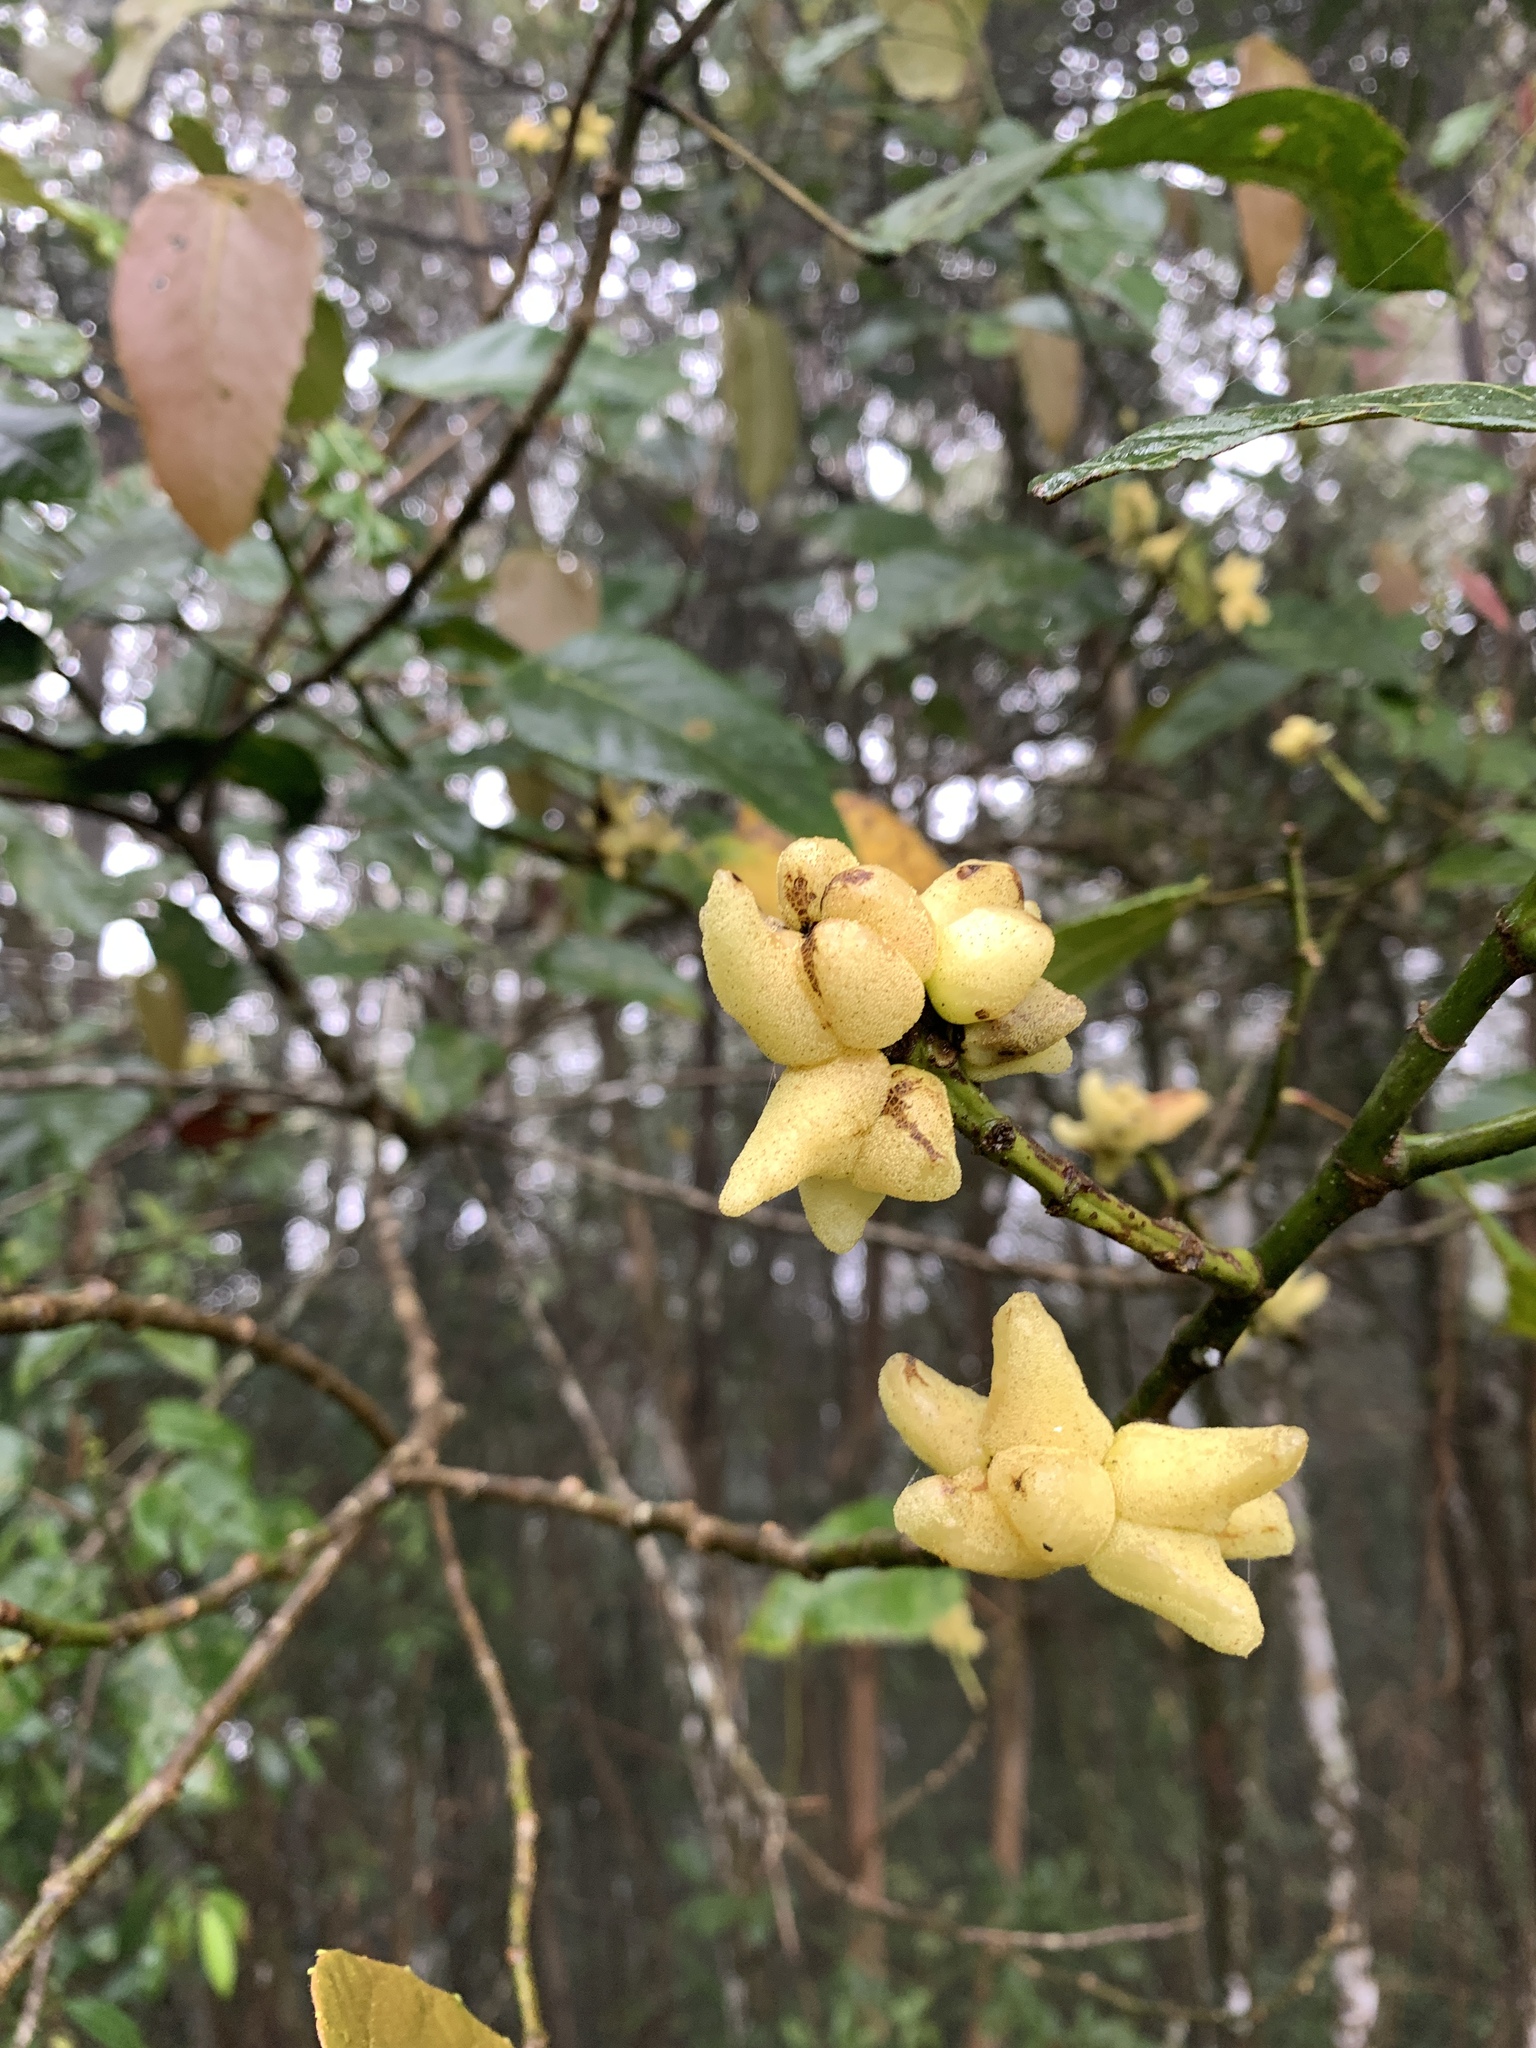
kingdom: Animalia
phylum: Chordata
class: Aves
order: Passeriformes
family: Muscicapidae
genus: Myophonus
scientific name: Myophonus borneensis
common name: Bornean whistling-thrush
